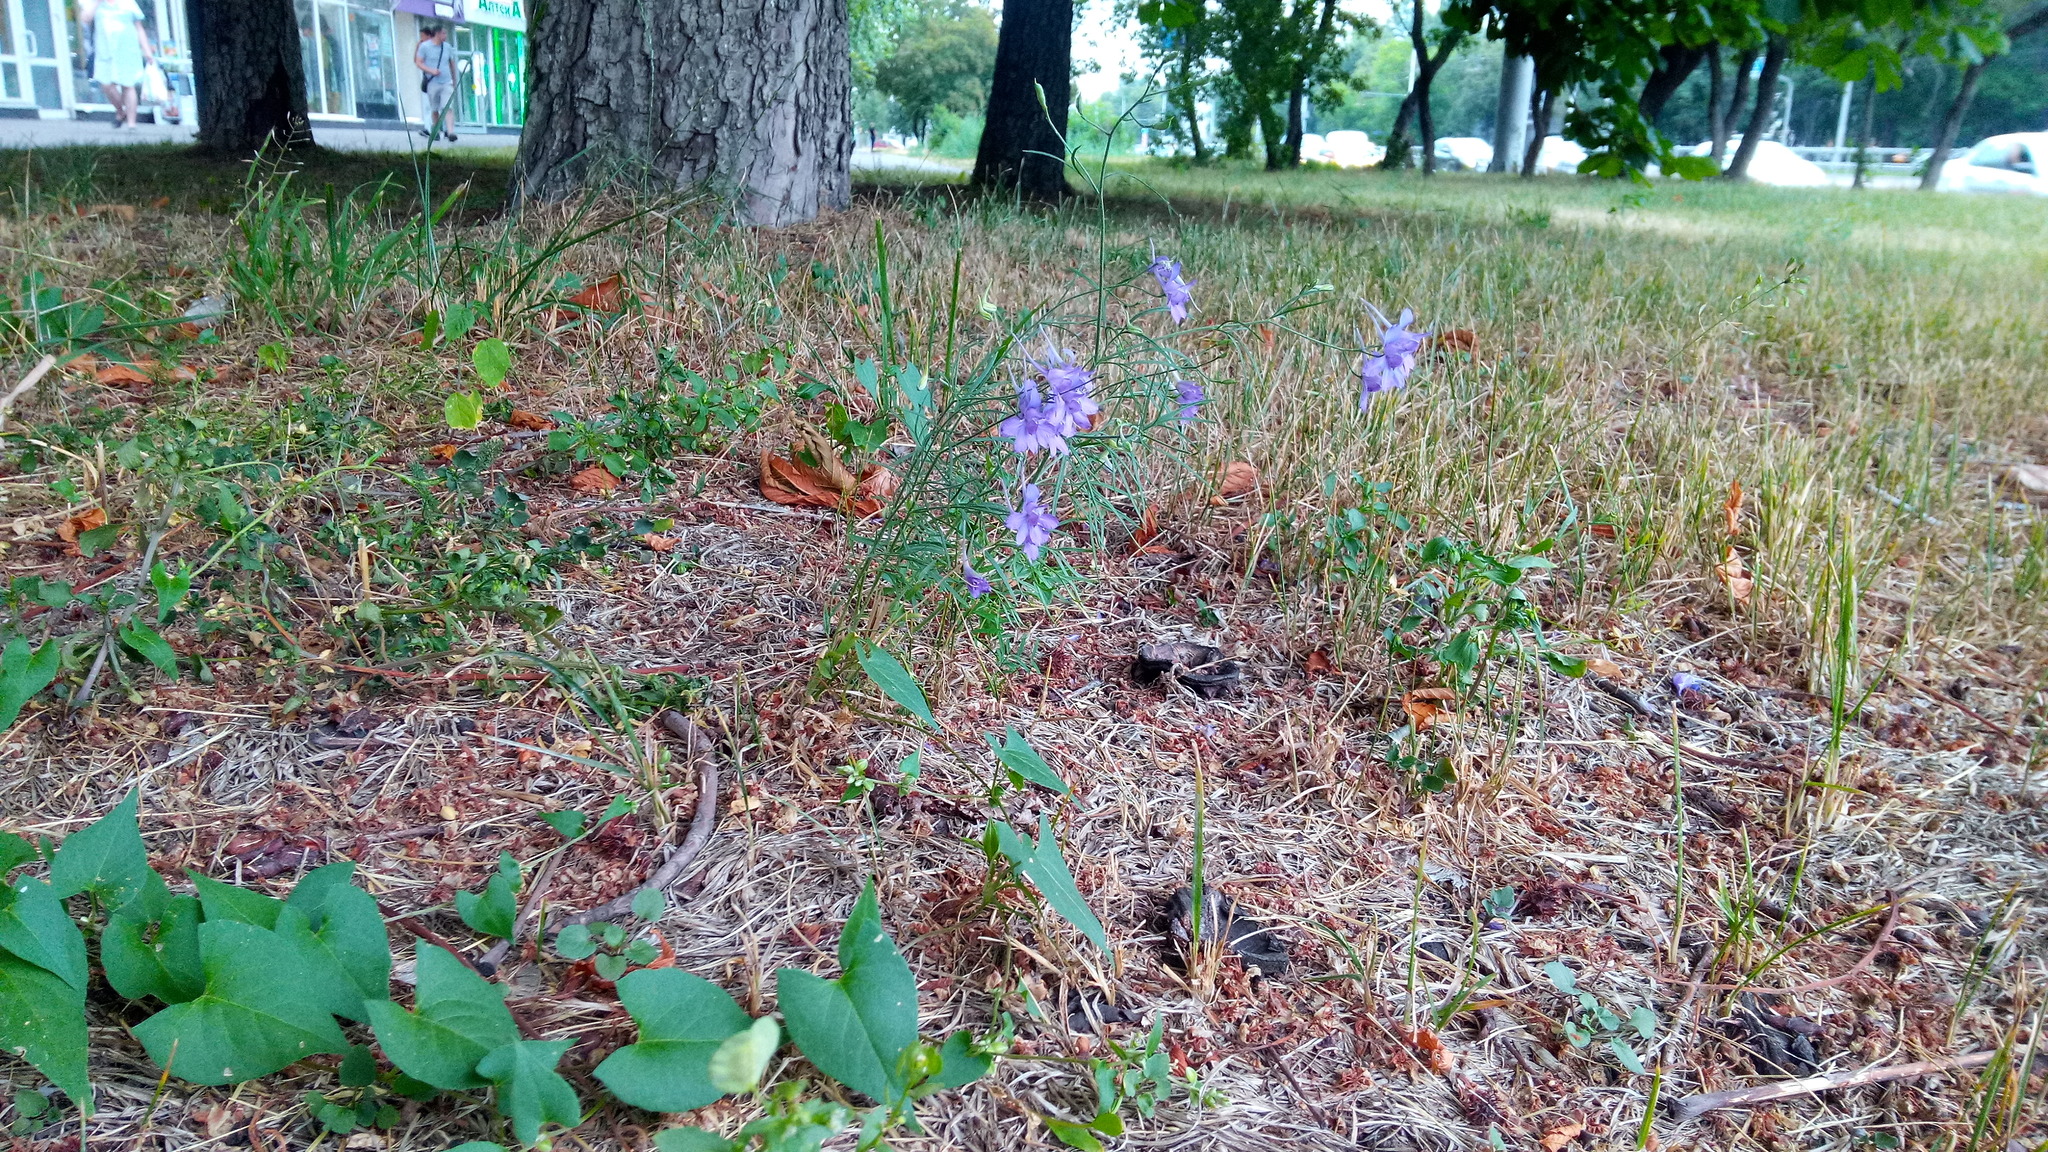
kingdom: Plantae
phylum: Tracheophyta
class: Magnoliopsida
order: Ranunculales
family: Ranunculaceae
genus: Delphinium
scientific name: Delphinium consolida
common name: Branching larkspur
